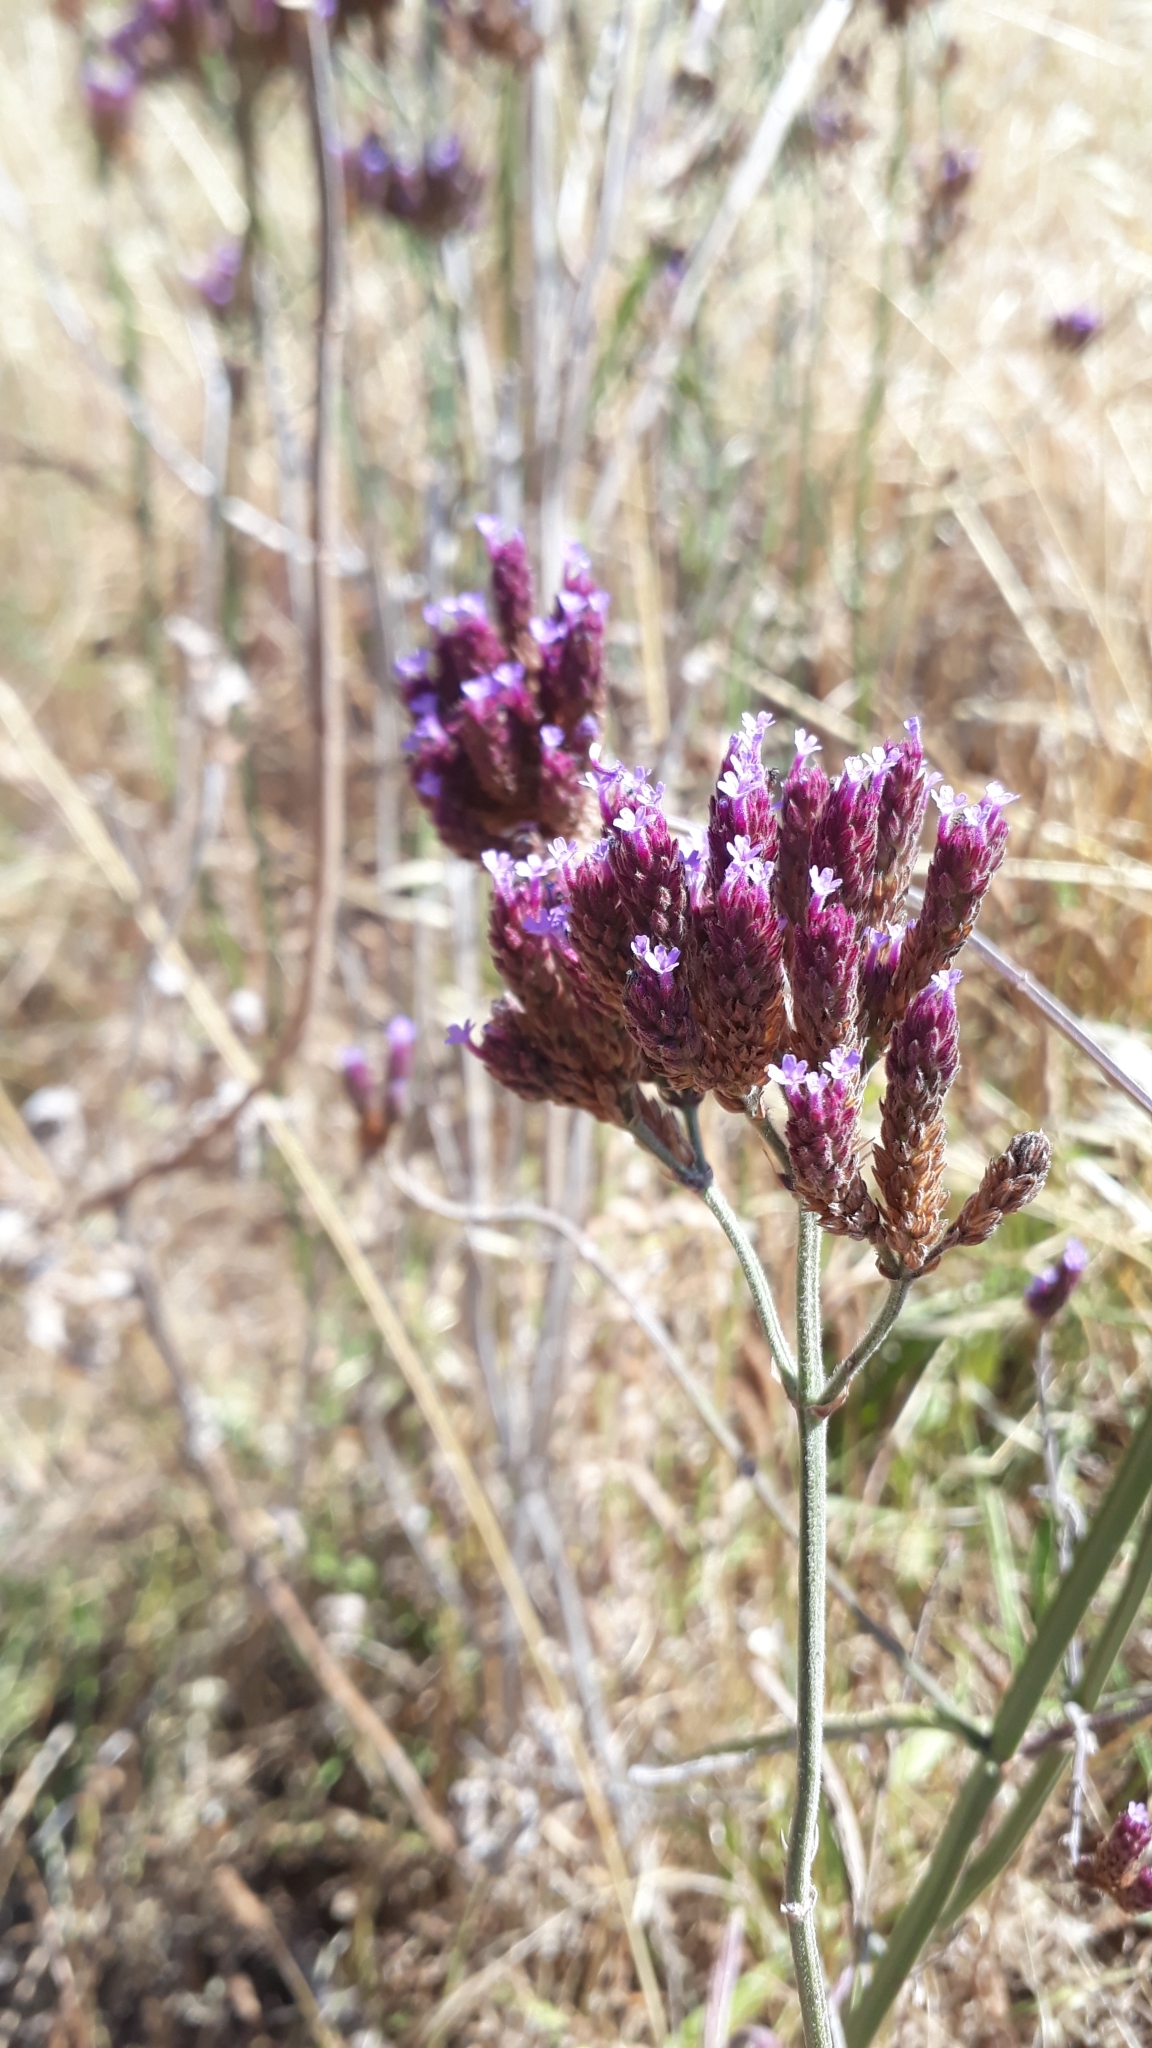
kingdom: Plantae
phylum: Tracheophyta
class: Magnoliopsida
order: Lamiales
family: Verbenaceae
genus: Verbena
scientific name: Verbena bonariensis
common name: Purpletop vervain
